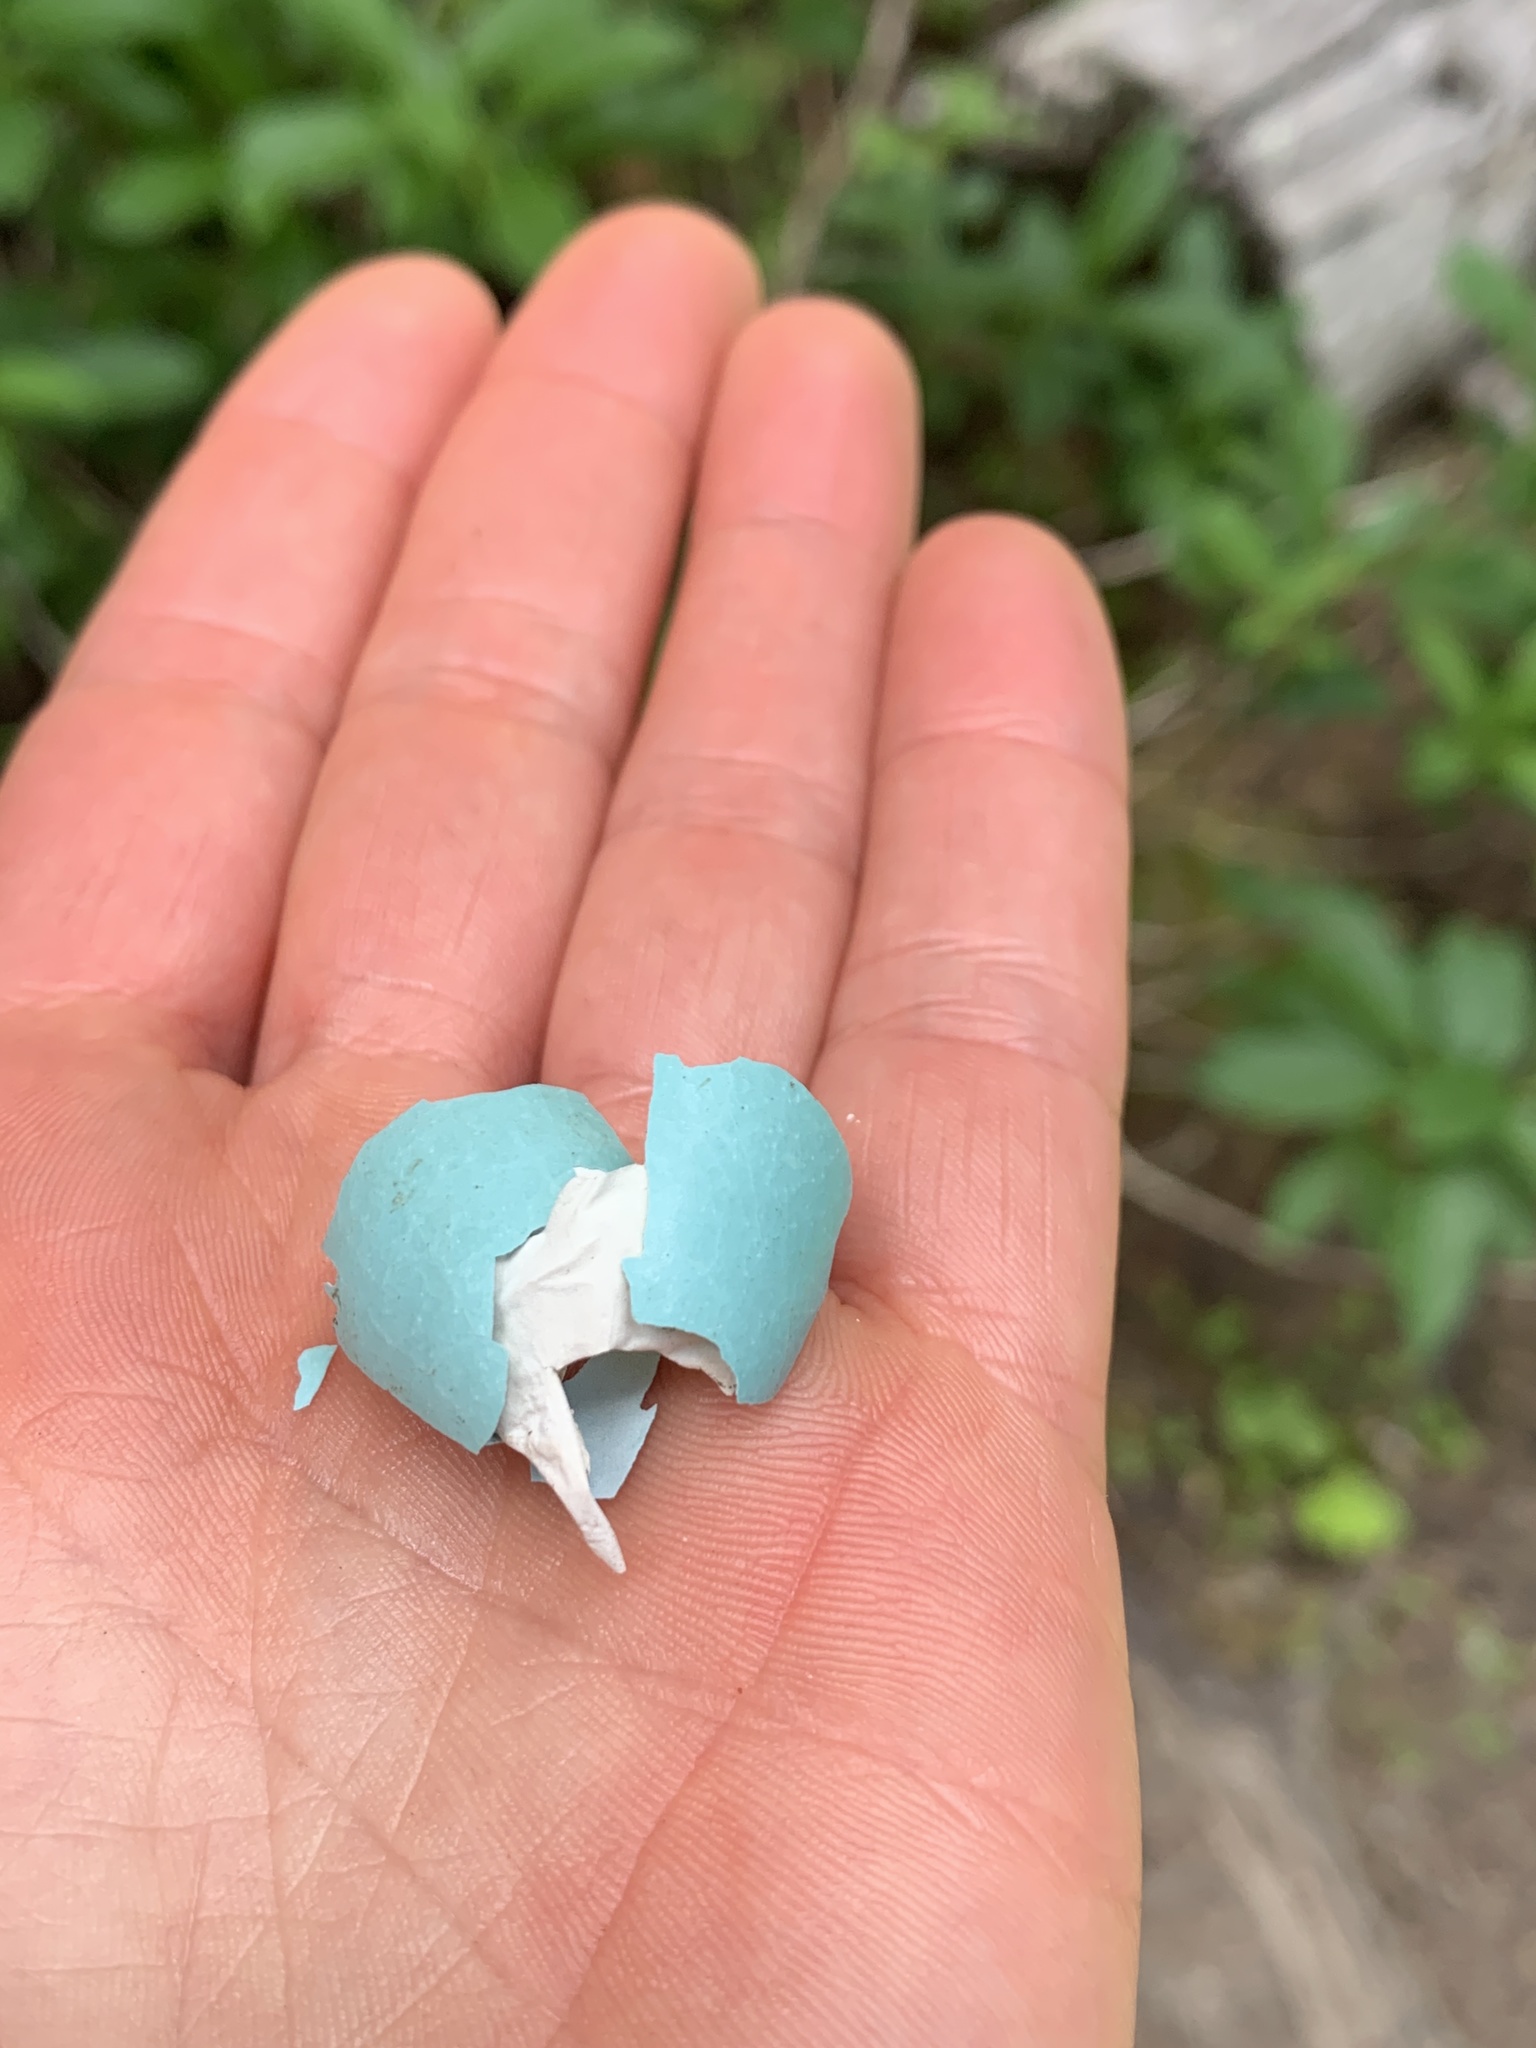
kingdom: Animalia
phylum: Chordata
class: Aves
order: Passeriformes
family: Turdidae
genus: Turdus
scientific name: Turdus migratorius
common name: American robin
